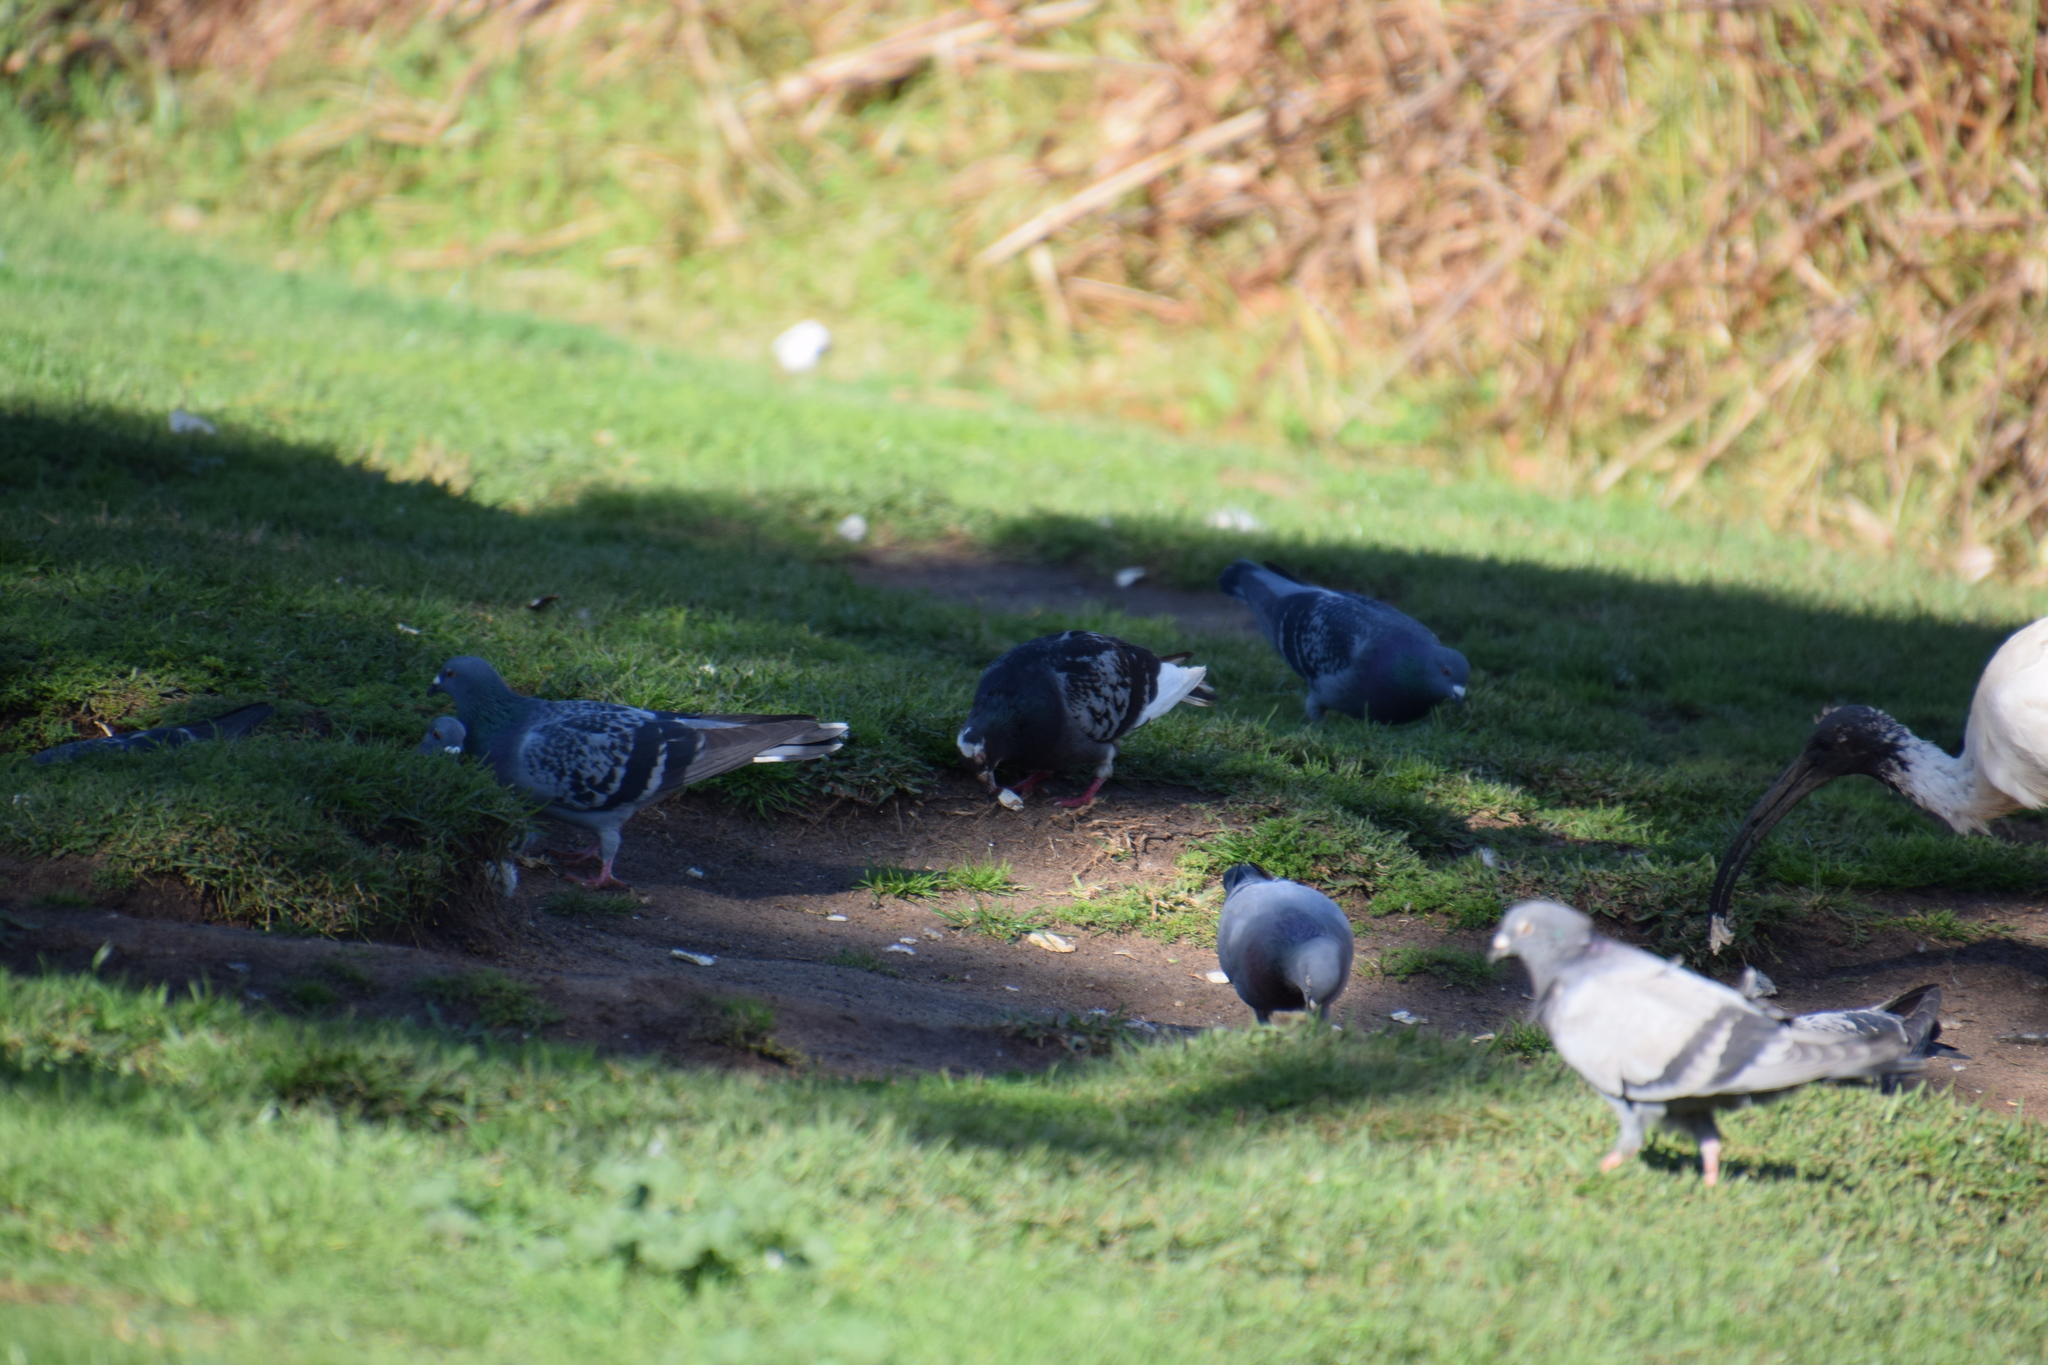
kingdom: Animalia
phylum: Chordata
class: Aves
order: Columbiformes
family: Columbidae
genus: Columba
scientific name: Columba livia
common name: Rock pigeon
